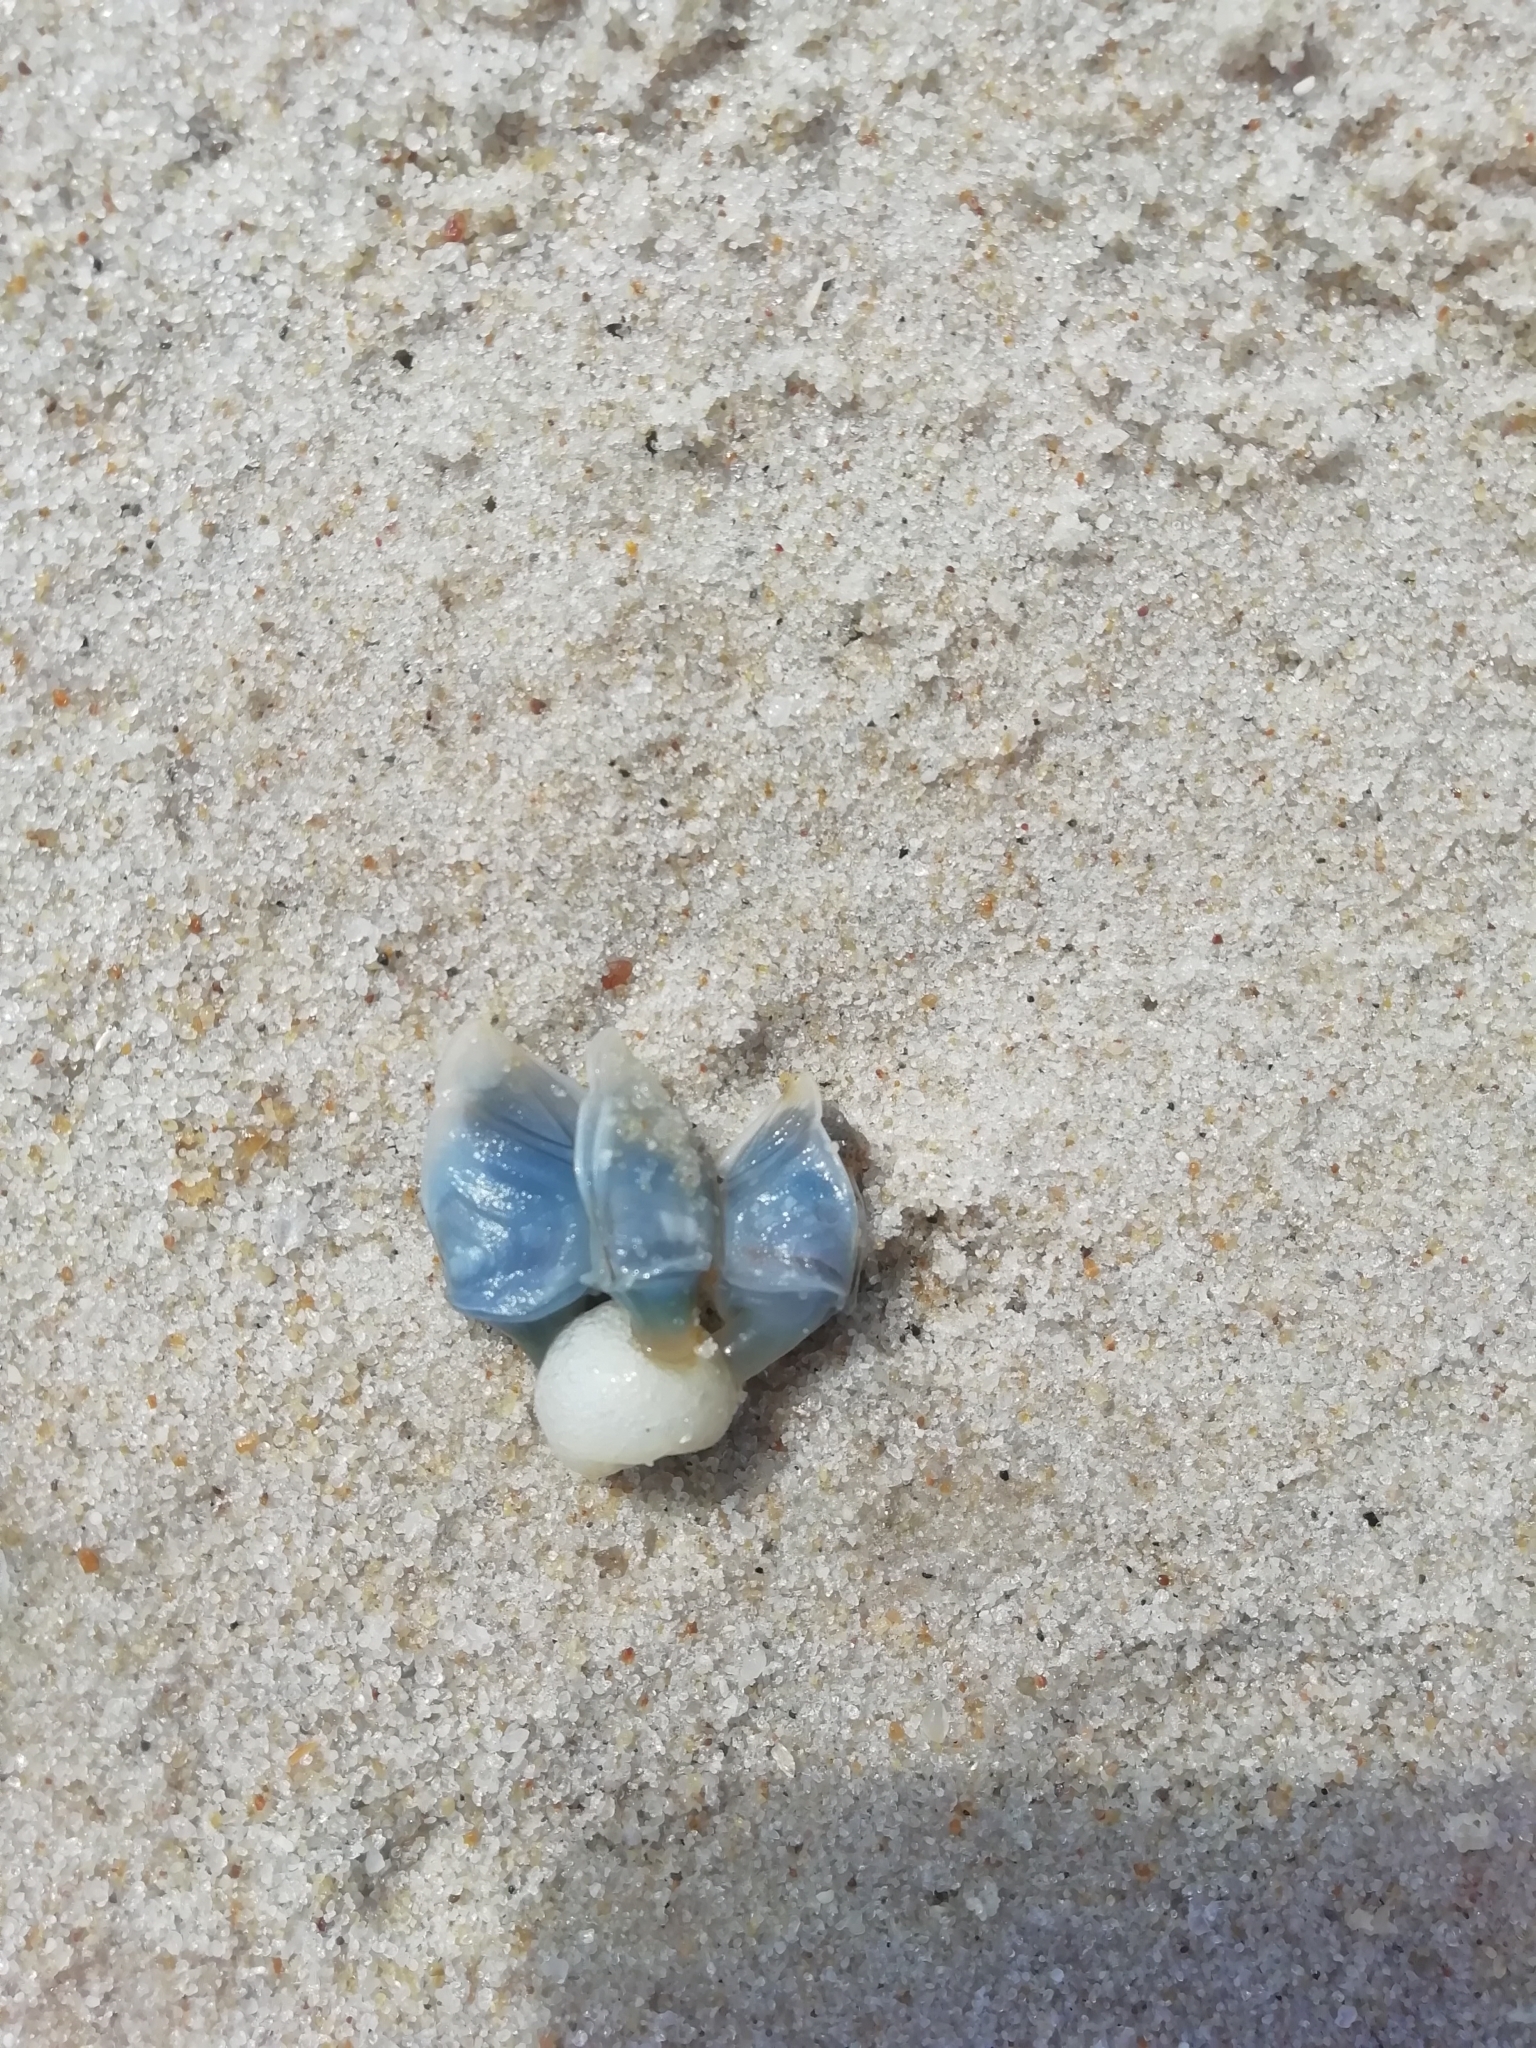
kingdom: Animalia
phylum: Arthropoda
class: Maxillopoda
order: Pedunculata
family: Lepadidae
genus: Dosima
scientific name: Dosima fascicularis
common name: Buoy barnacle
